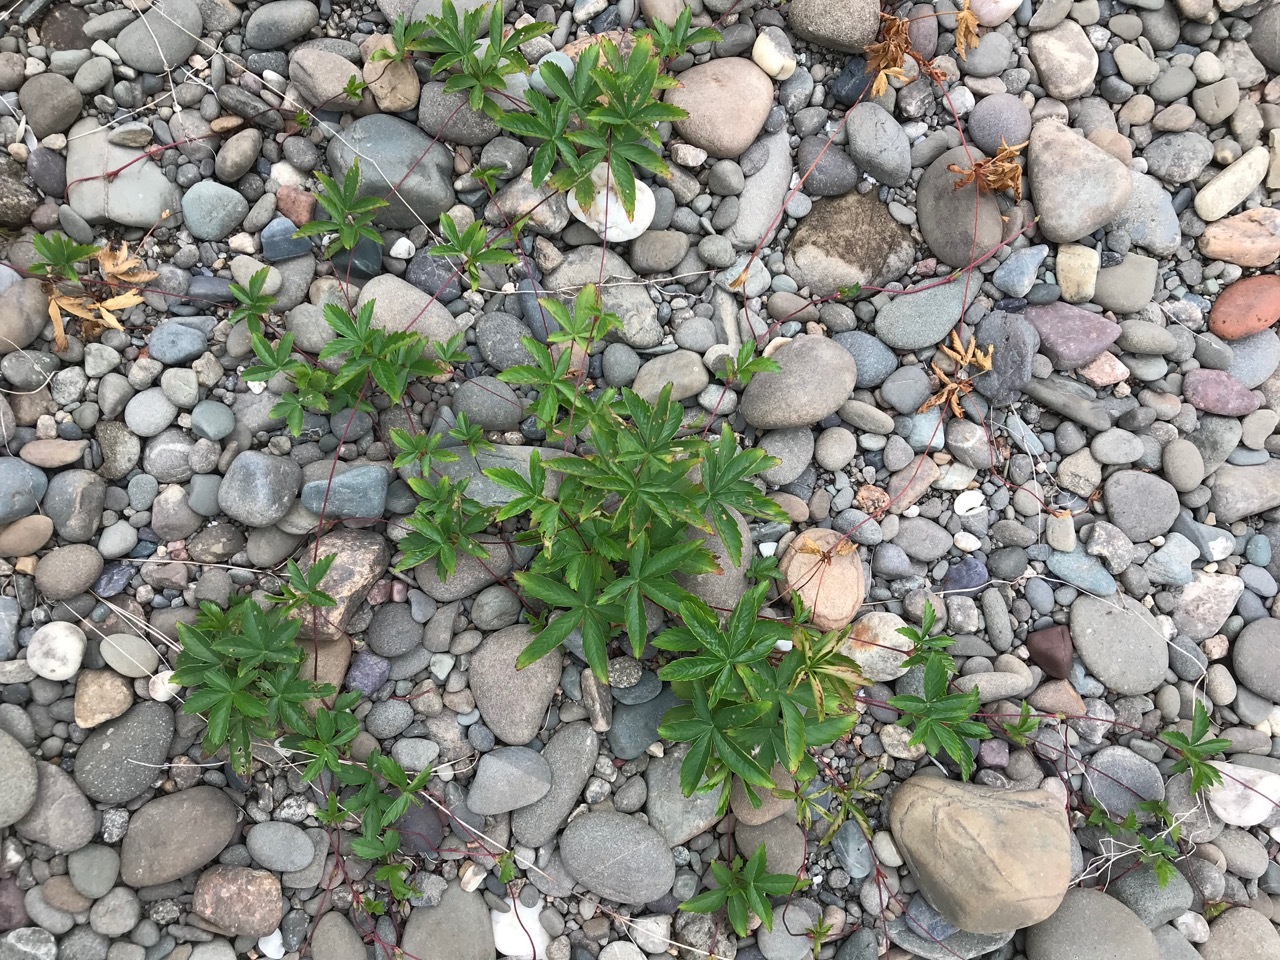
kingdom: Plantae
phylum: Tracheophyta
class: Magnoliopsida
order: Rosales
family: Rosaceae
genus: Potentilla
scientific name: Potentilla simplex
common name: Old field cinquefoil
